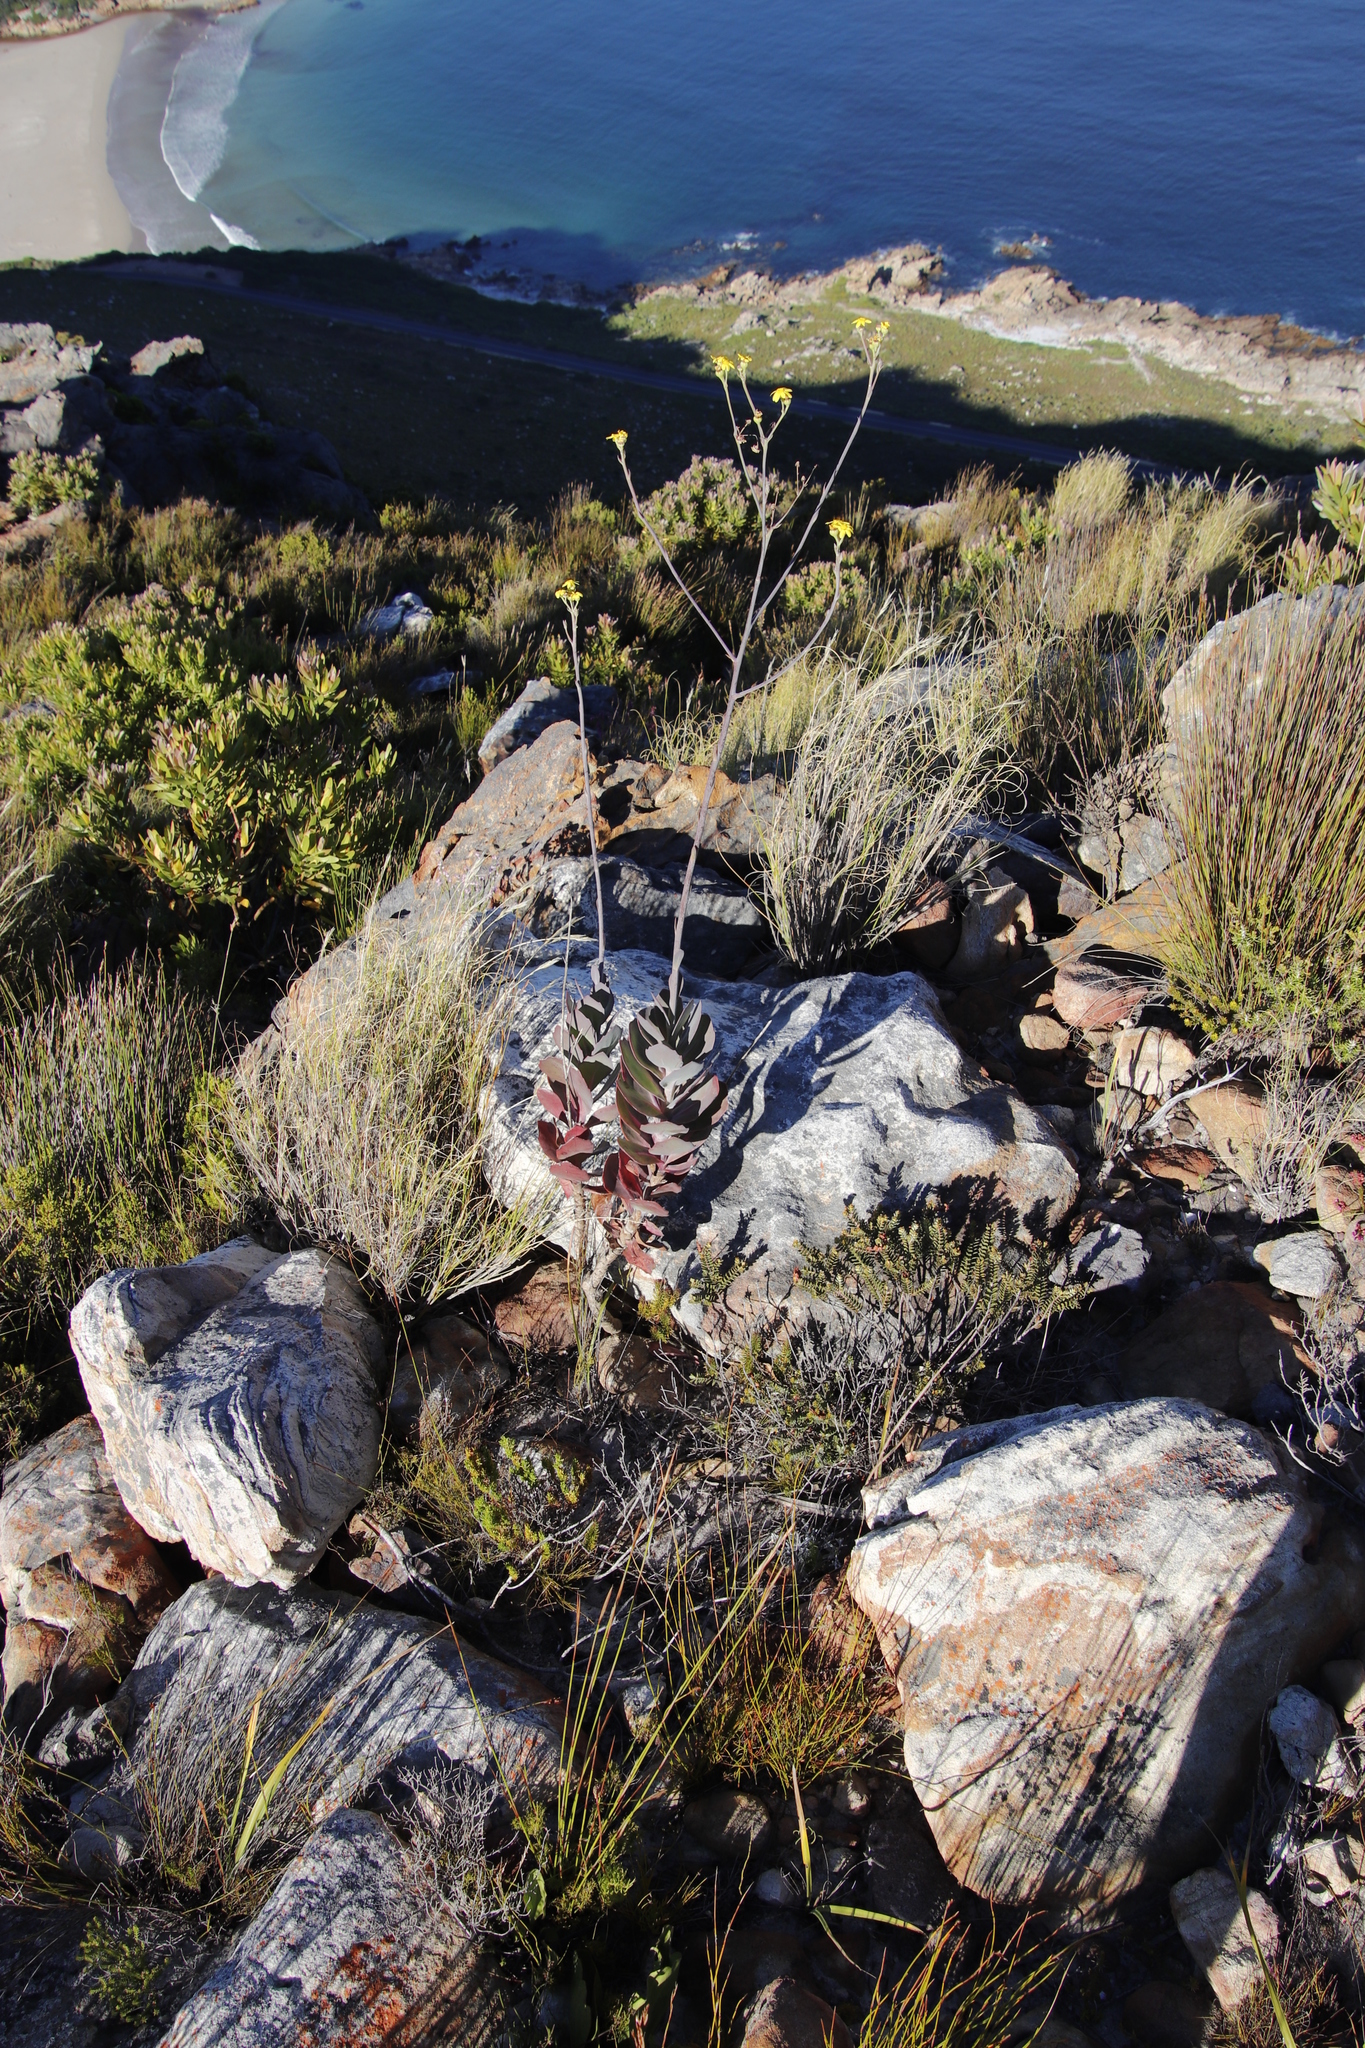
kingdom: Plantae
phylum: Tracheophyta
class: Magnoliopsida
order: Asterales
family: Asteraceae
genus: Othonna
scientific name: Othonna quinquedentata
